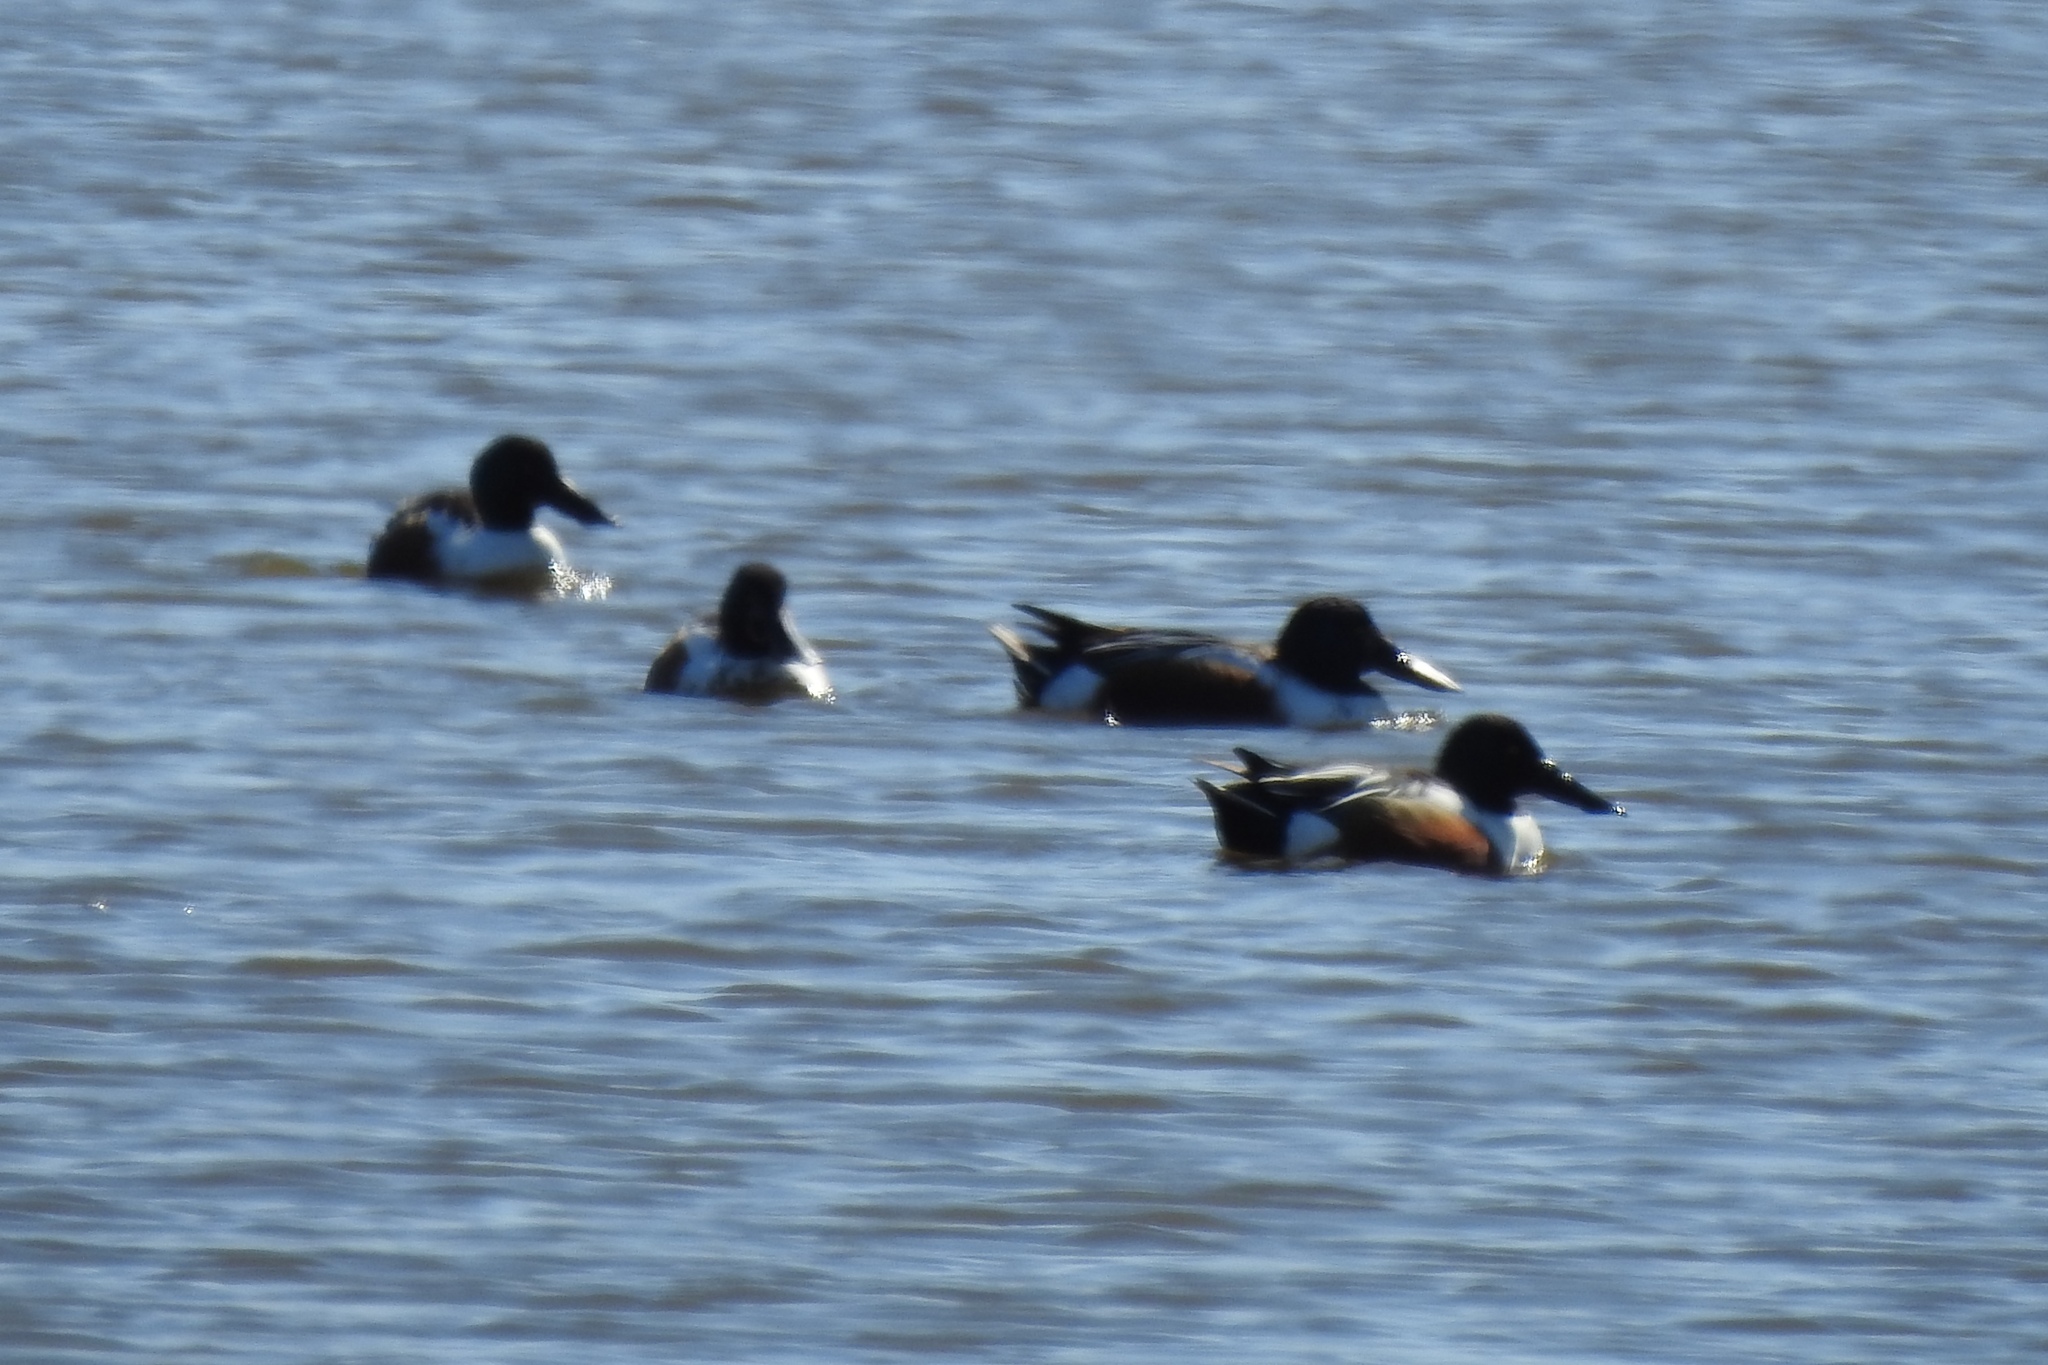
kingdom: Animalia
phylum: Chordata
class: Aves
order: Anseriformes
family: Anatidae
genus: Spatula
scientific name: Spatula clypeata
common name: Northern shoveler
